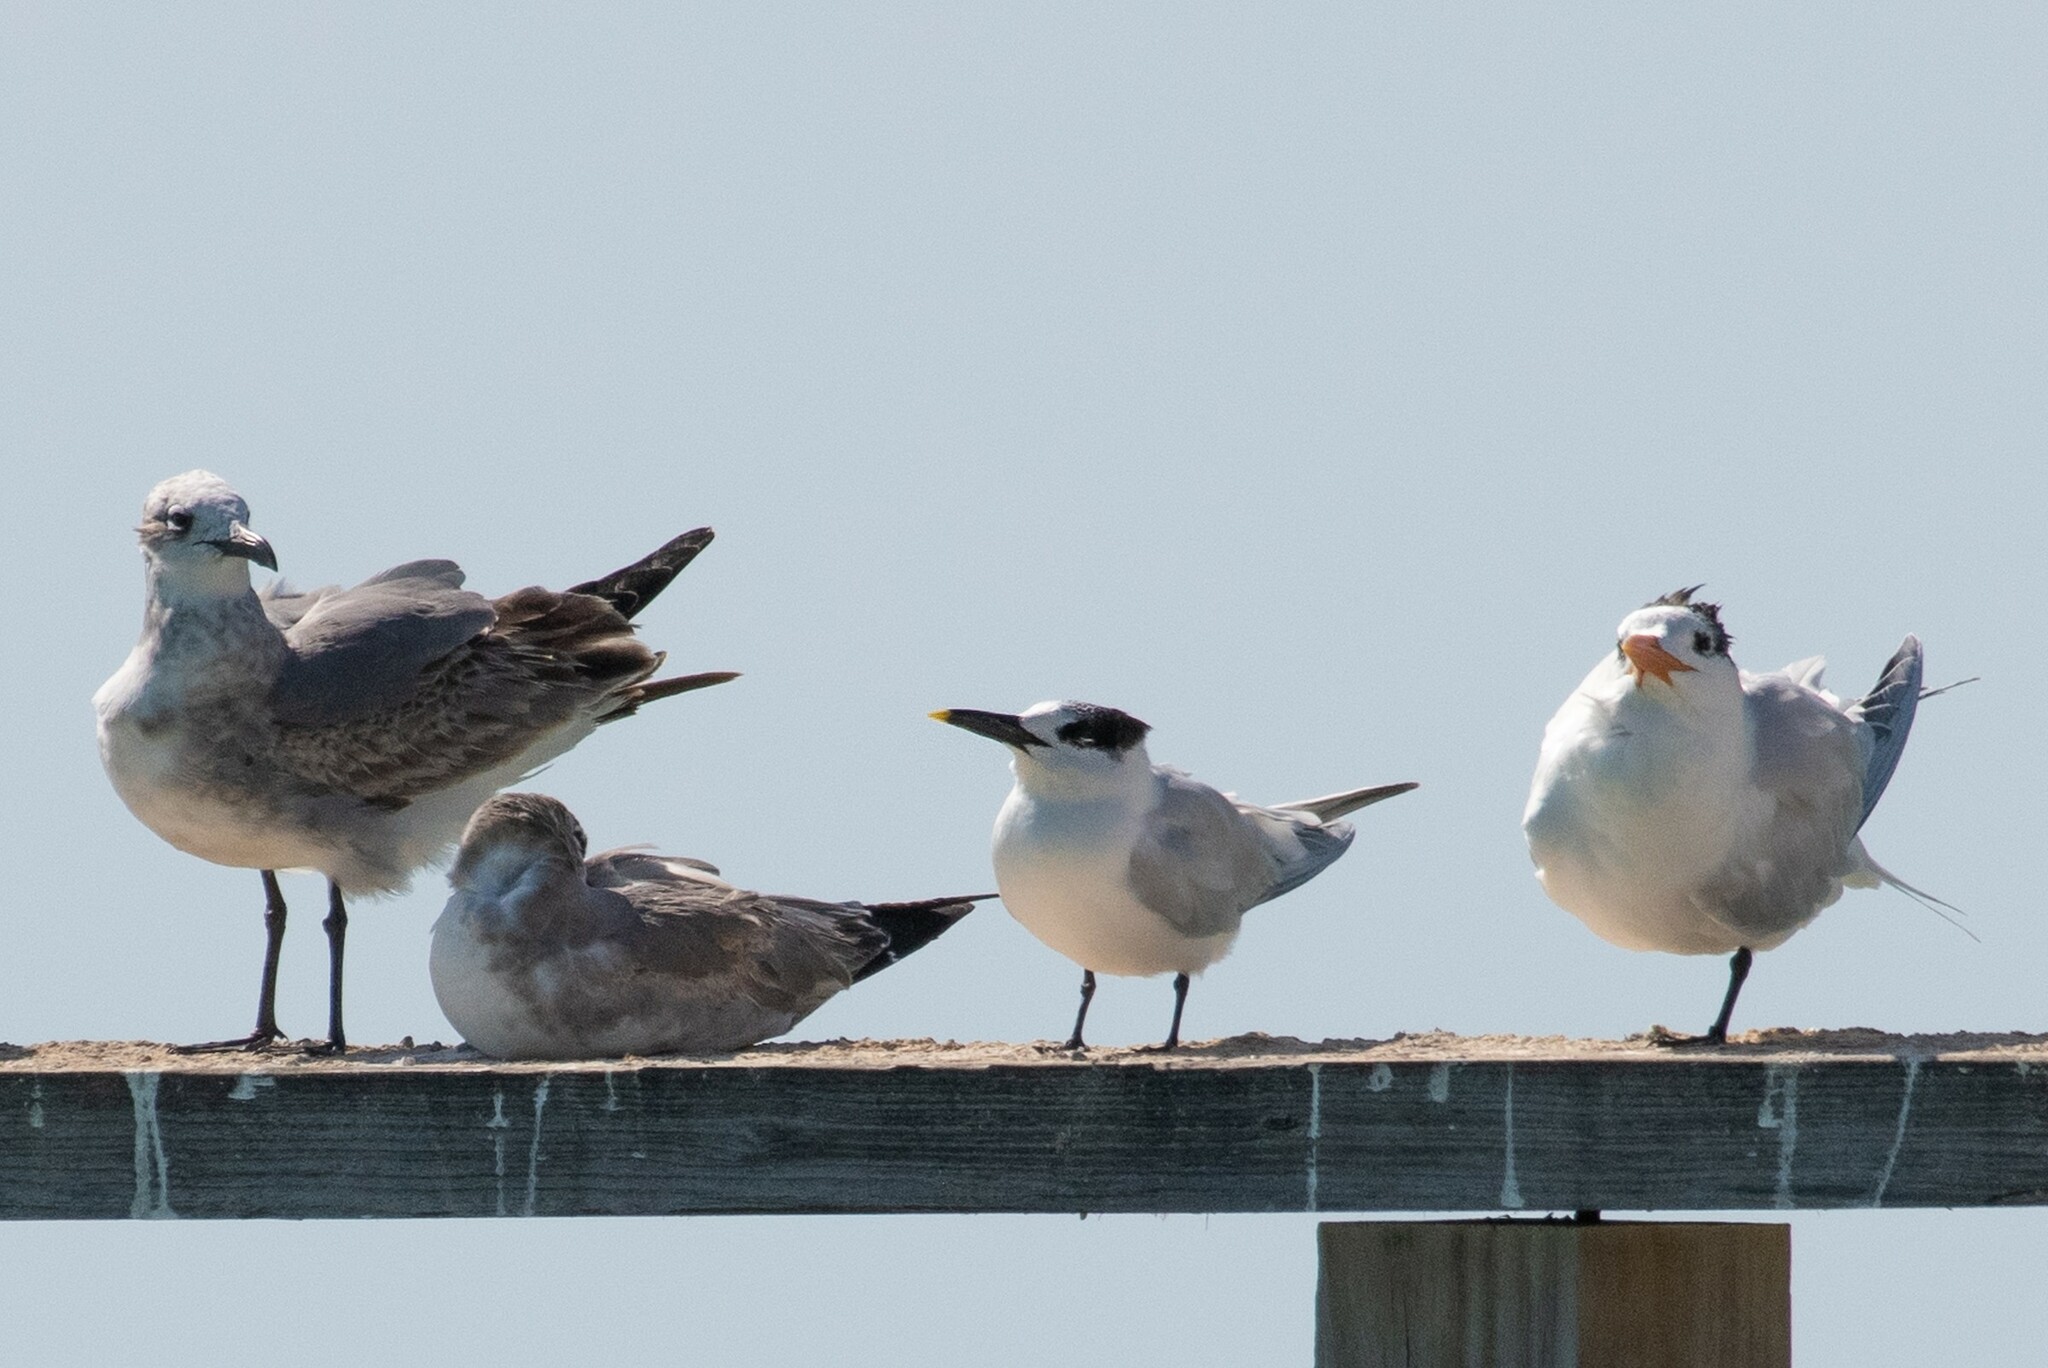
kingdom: Animalia
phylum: Chordata
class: Aves
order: Charadriiformes
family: Laridae
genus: Thalasseus
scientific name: Thalasseus sandvicensis
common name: Sandwich tern
